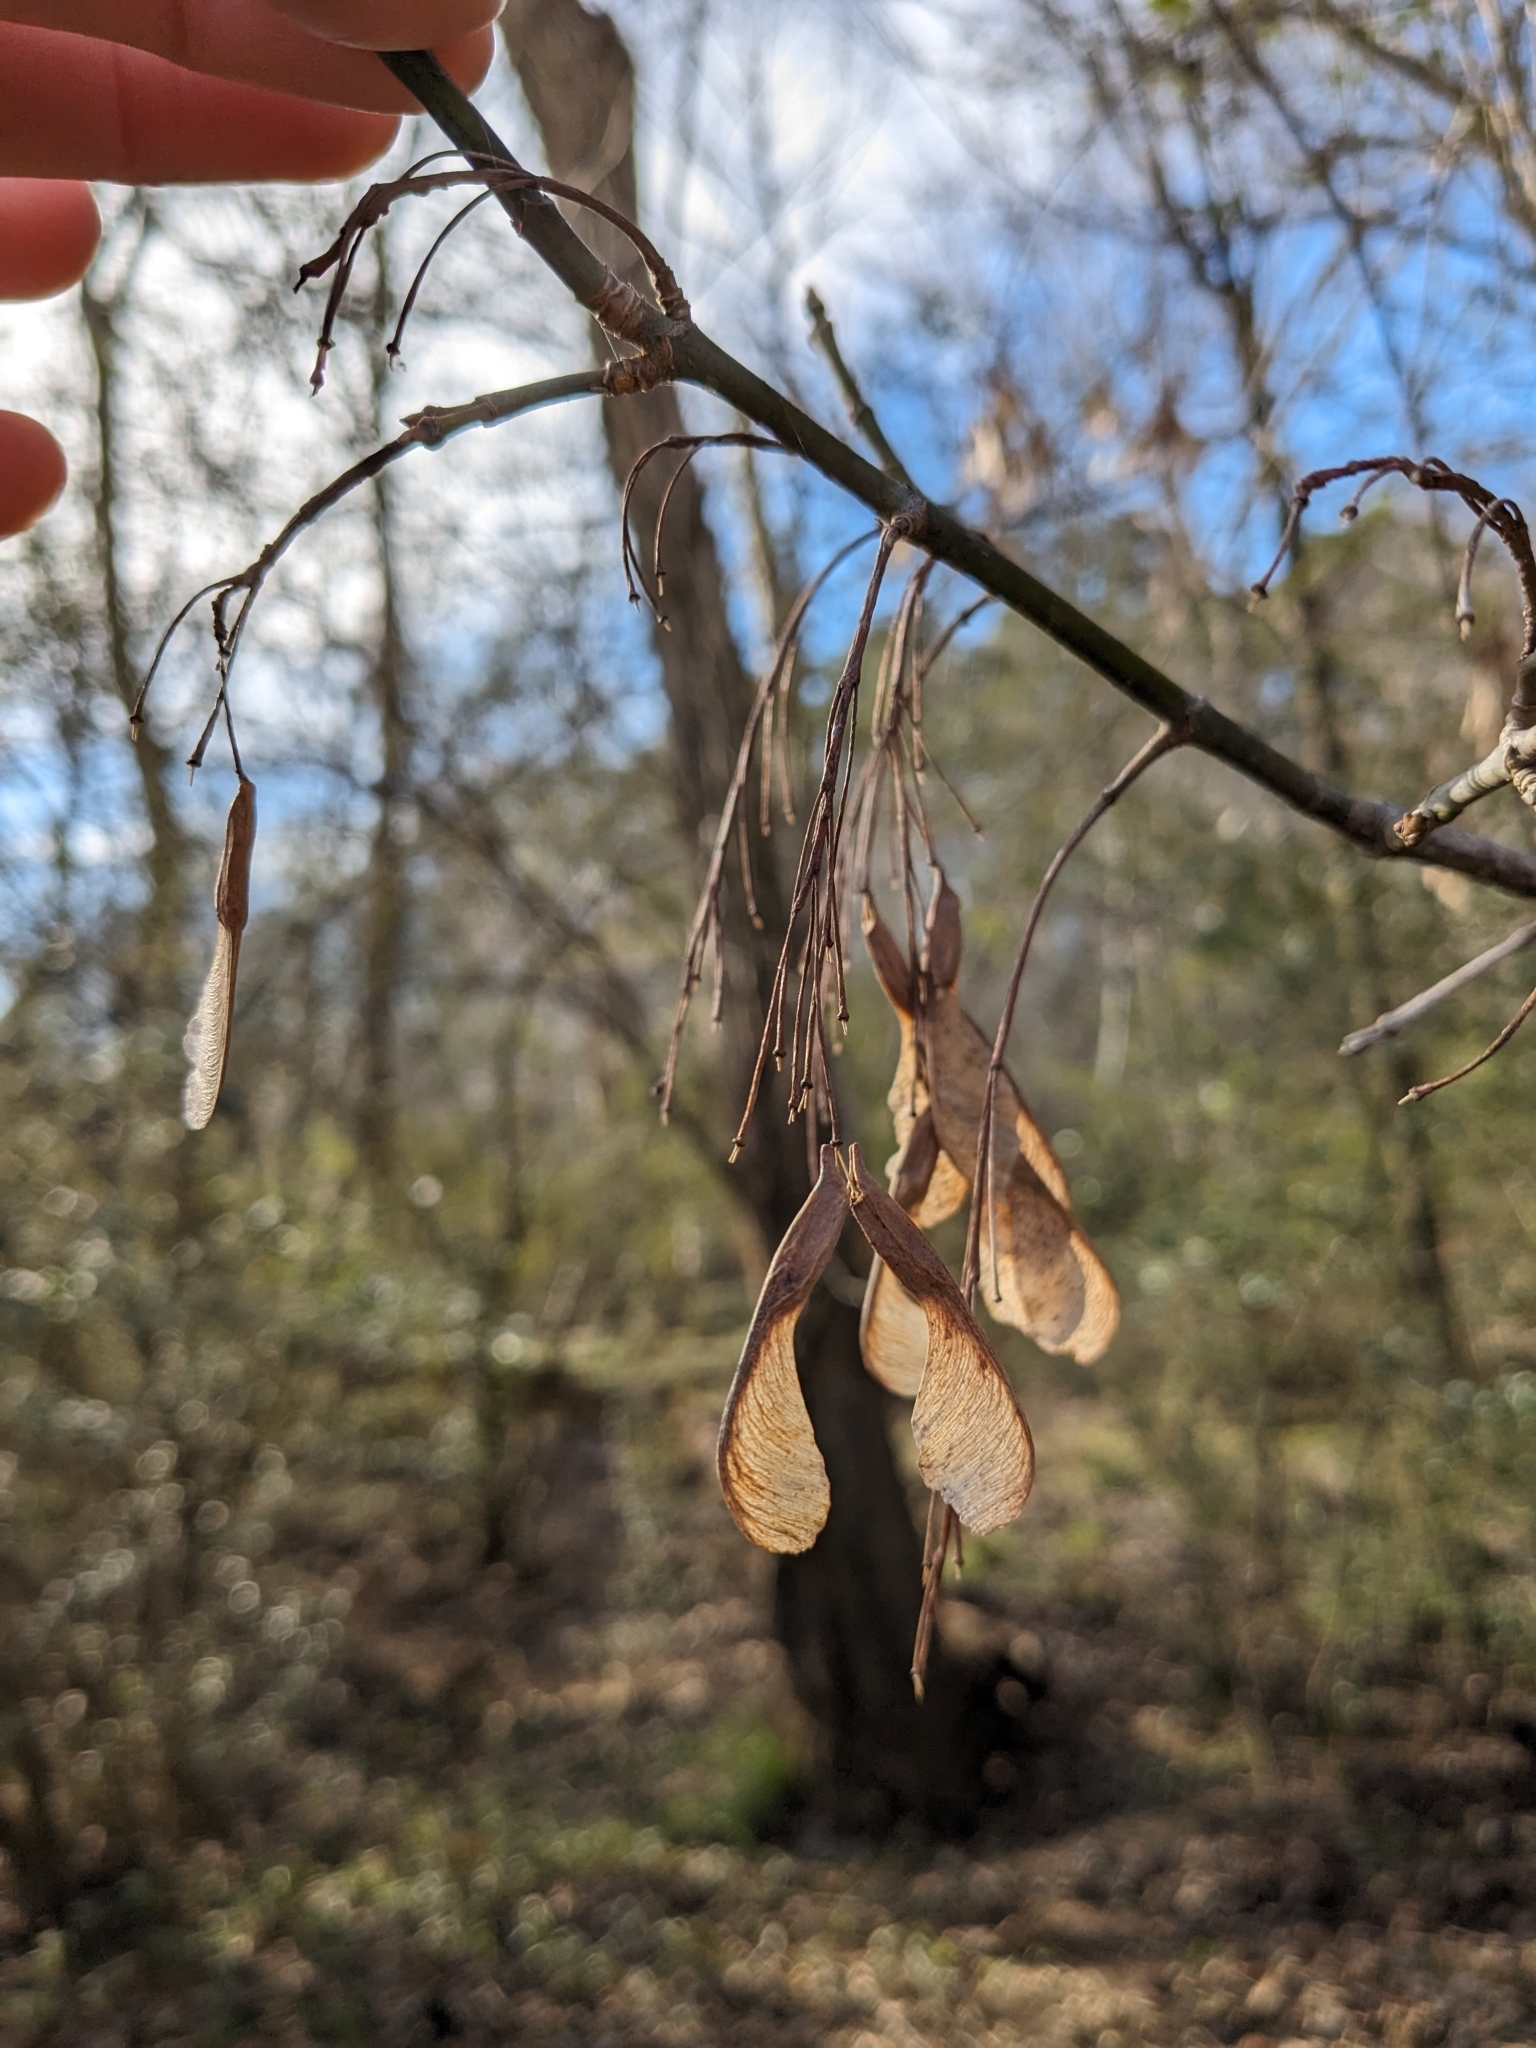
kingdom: Plantae
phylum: Tracheophyta
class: Magnoliopsida
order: Sapindales
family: Sapindaceae
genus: Acer
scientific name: Acer negundo
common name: Ashleaf maple
